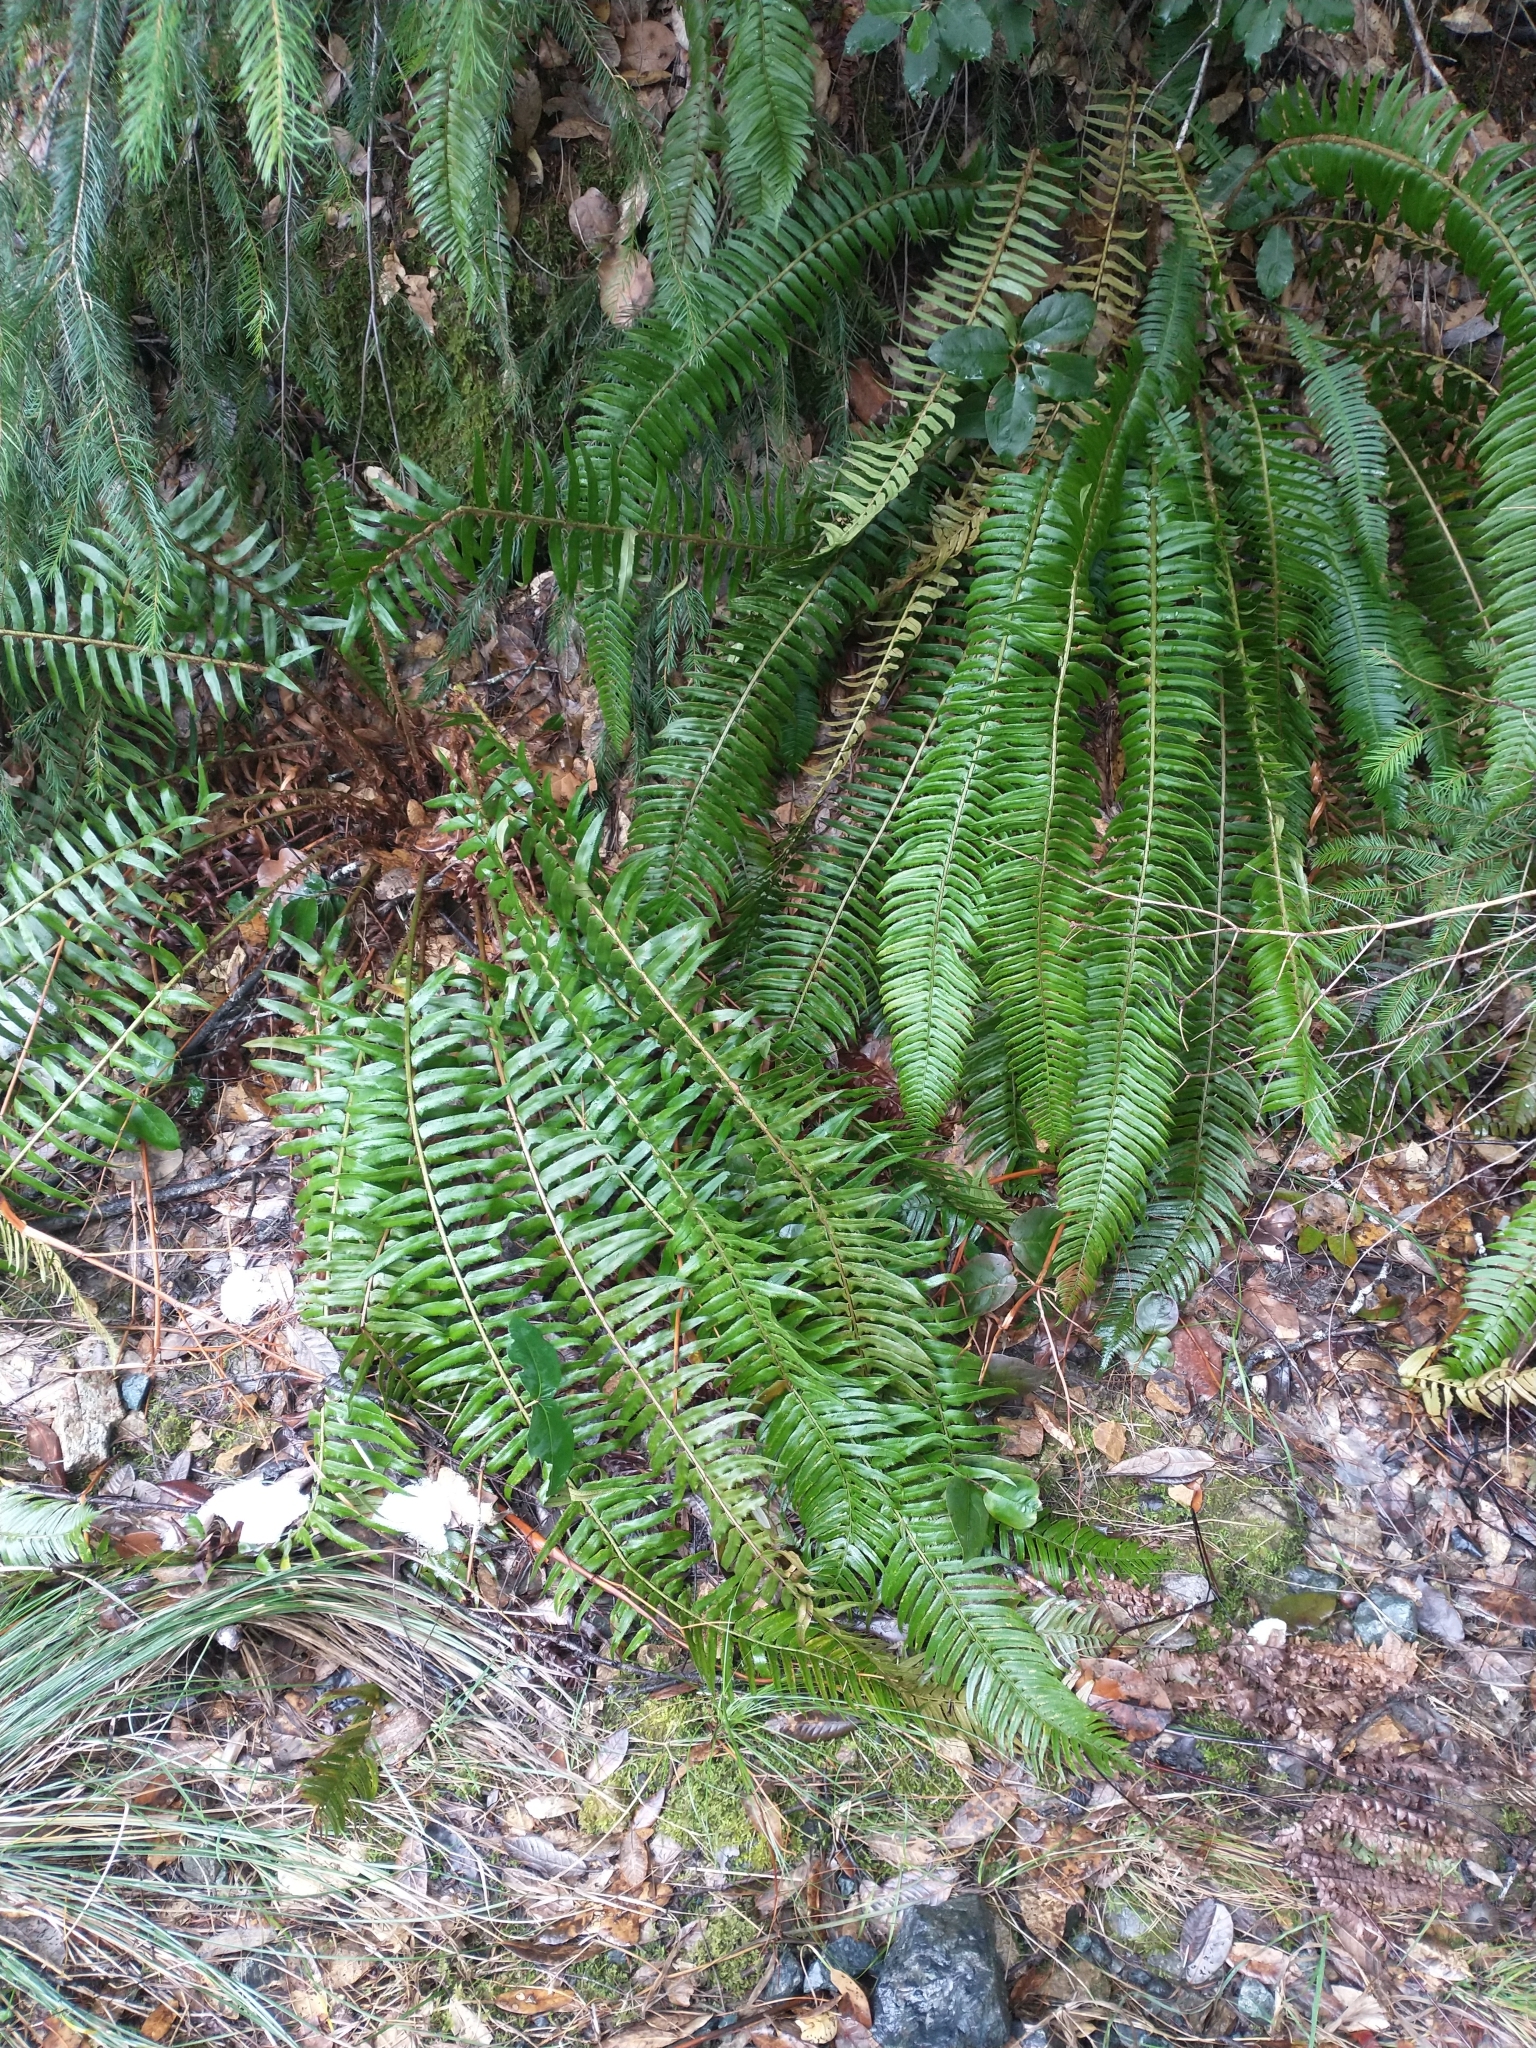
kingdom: Plantae
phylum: Tracheophyta
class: Polypodiopsida
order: Polypodiales
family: Dryopteridaceae
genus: Polystichum
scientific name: Polystichum munitum
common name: Western sword-fern
